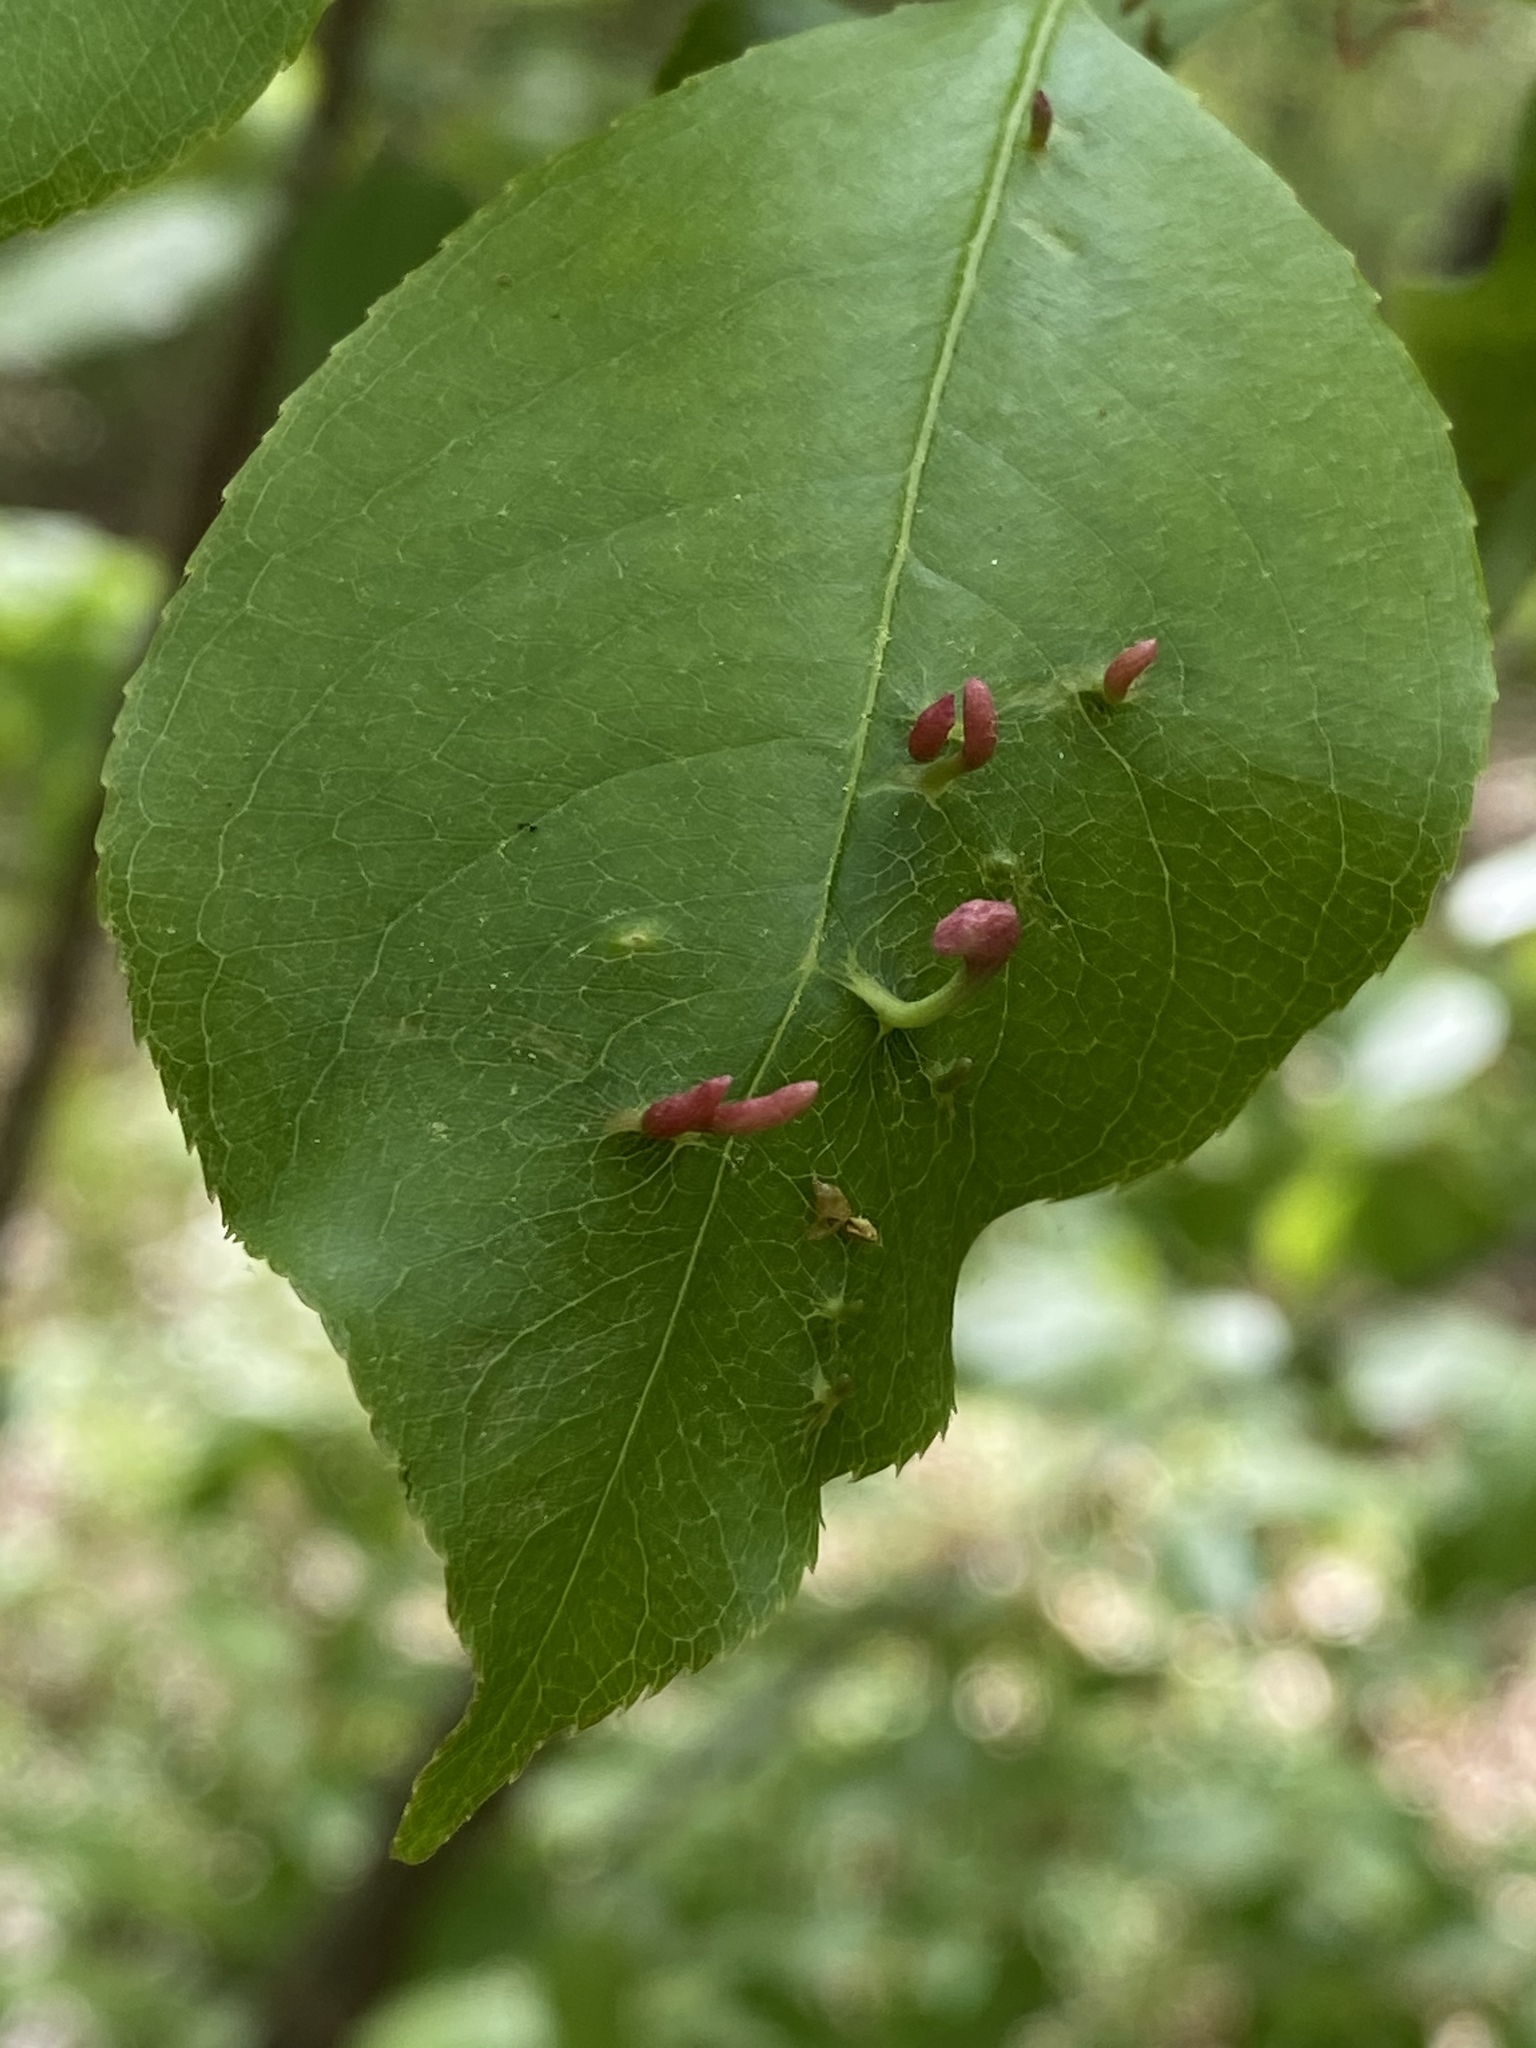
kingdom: Animalia
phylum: Arthropoda
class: Arachnida
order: Trombidiformes
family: Eriophyidae
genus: Eriophyes
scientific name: Eriophyes
